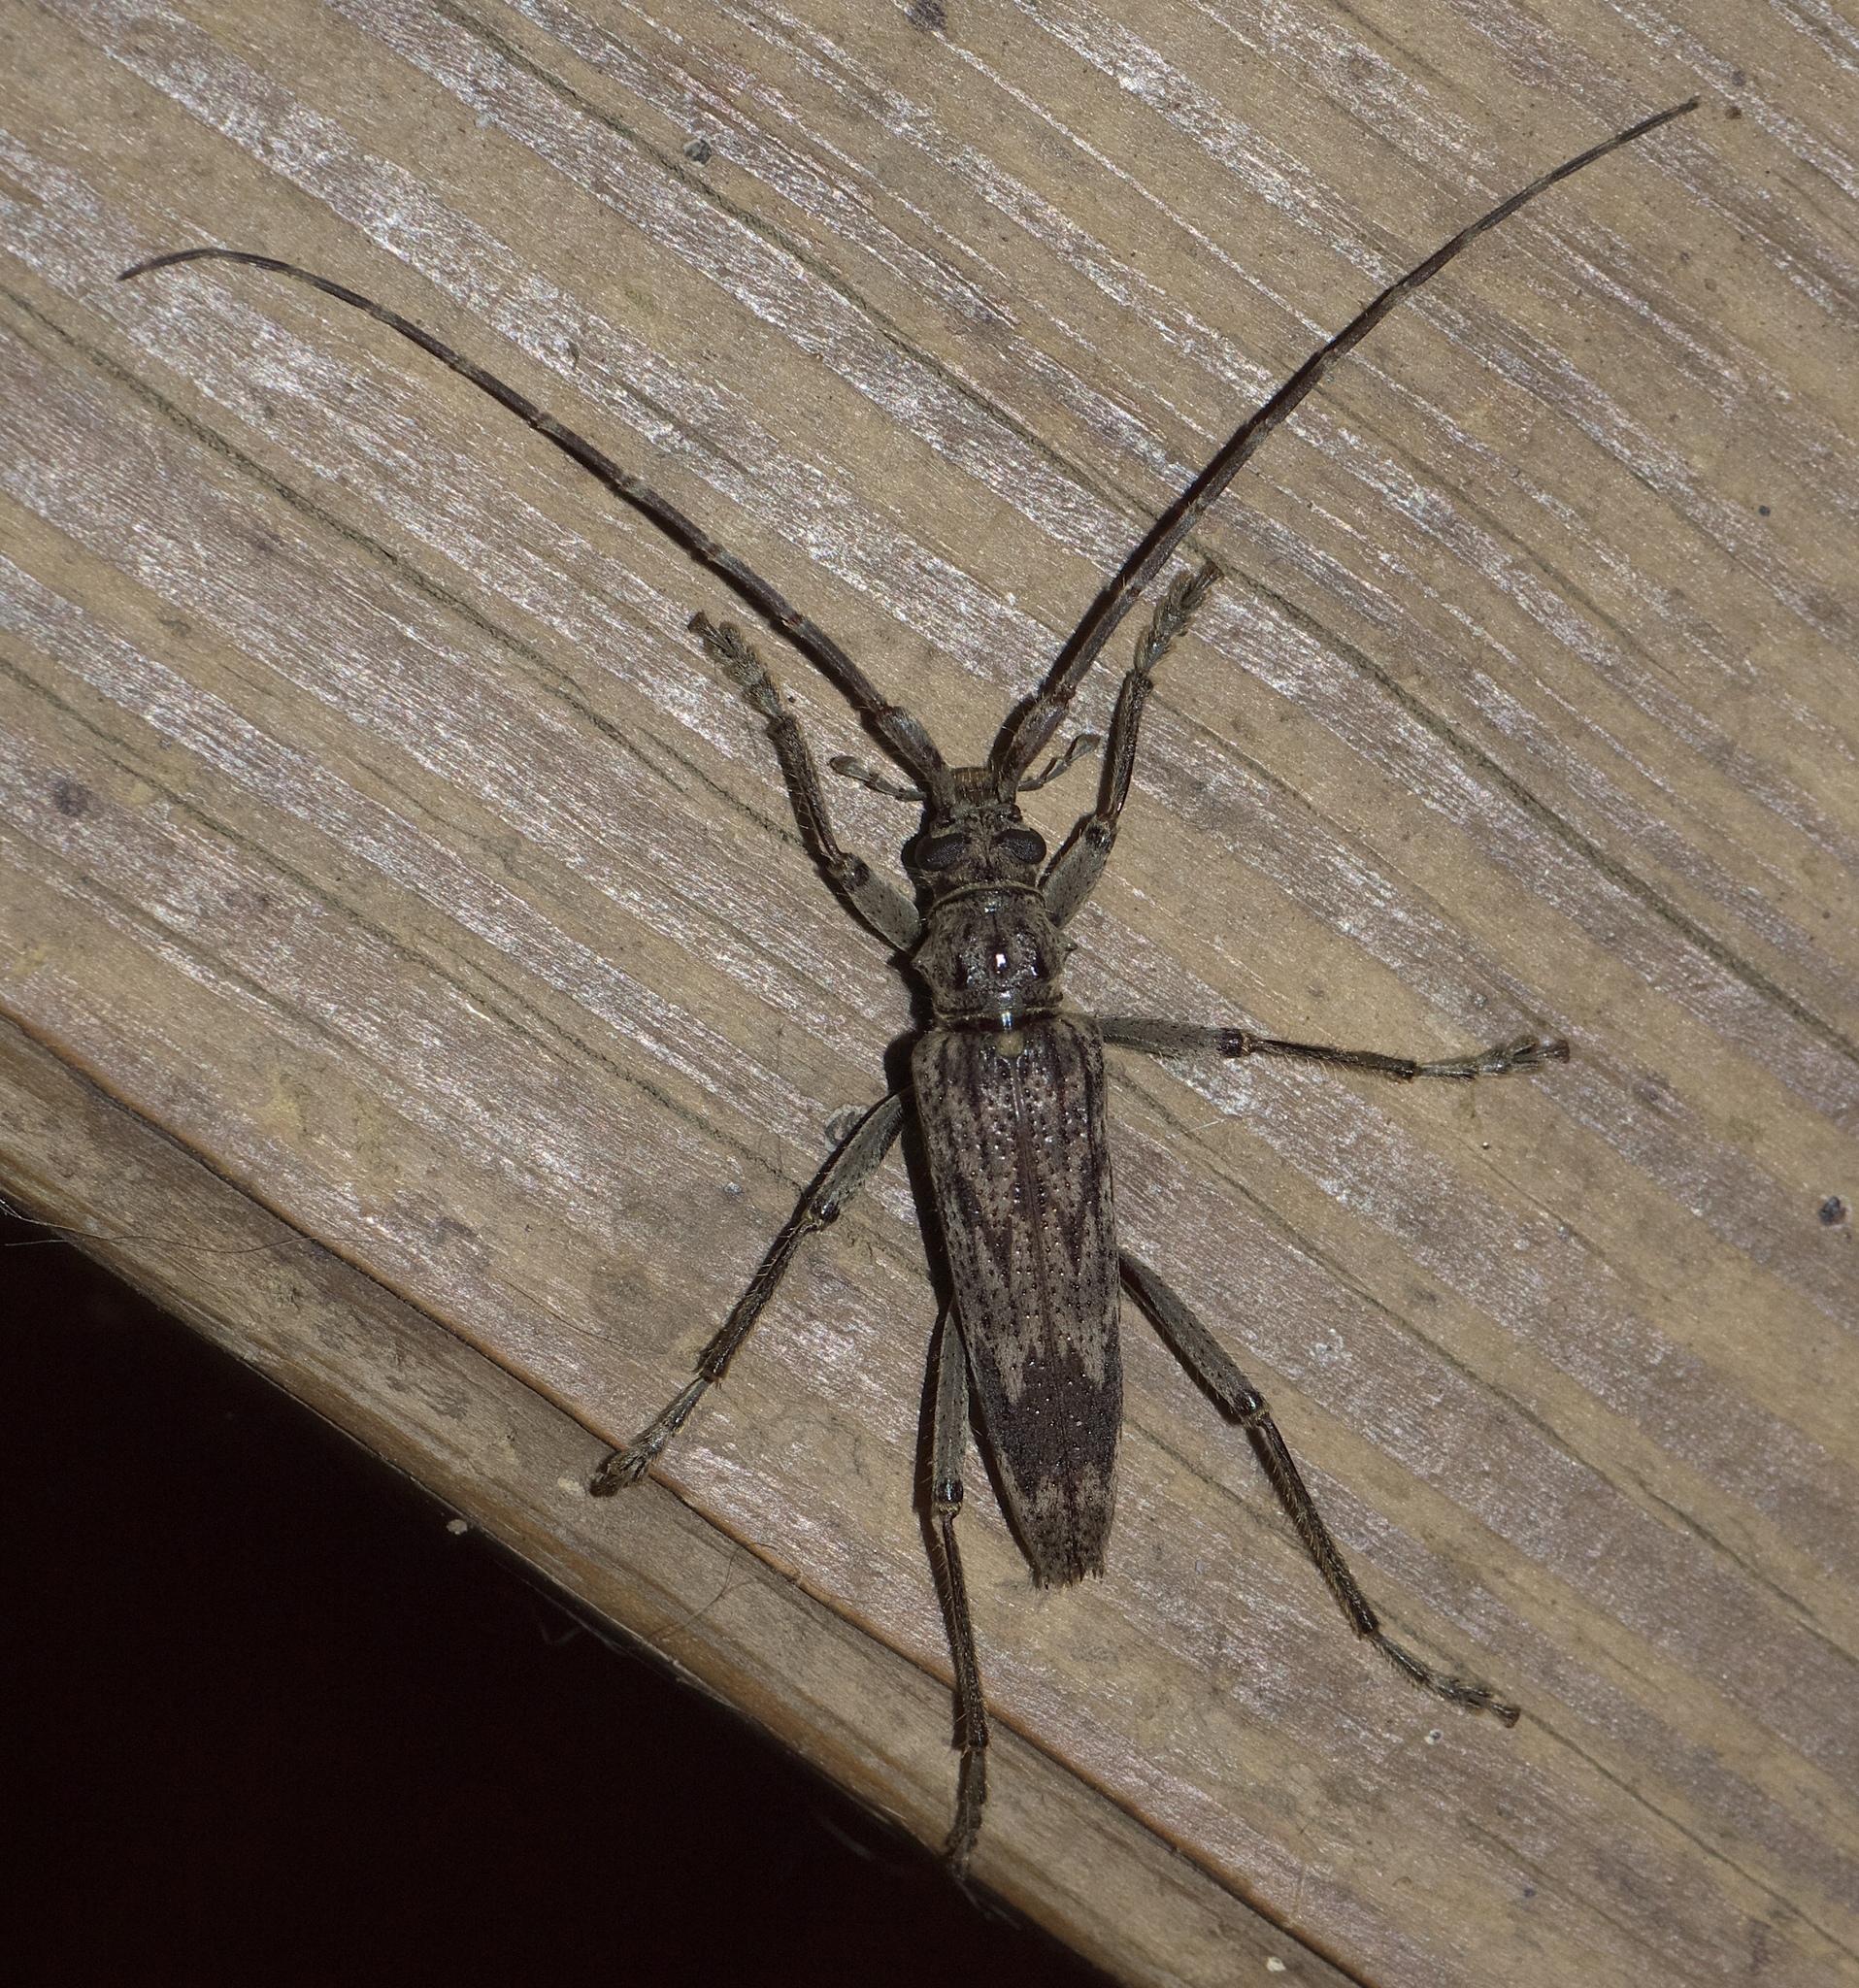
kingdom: Animalia
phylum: Arthropoda
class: Insecta
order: Coleoptera
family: Cerambycidae
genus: Elytrimitatrix
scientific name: Elytrimitatrix undata
